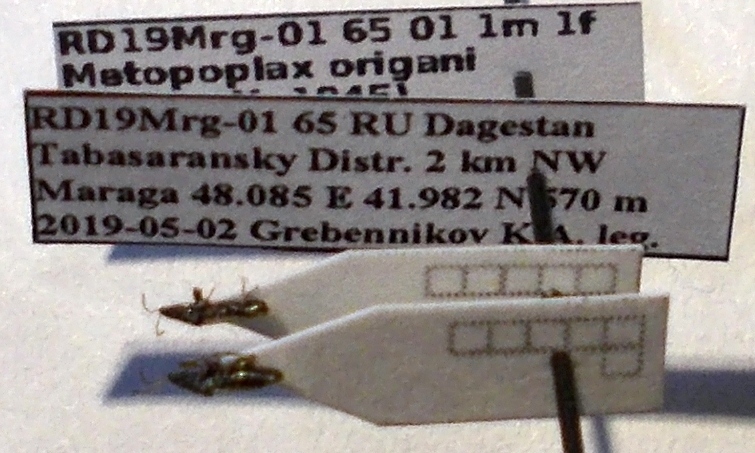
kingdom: Animalia
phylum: Arthropoda
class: Insecta
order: Hemiptera
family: Oxycarenidae
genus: Metopoplax
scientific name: Metopoplax origani
